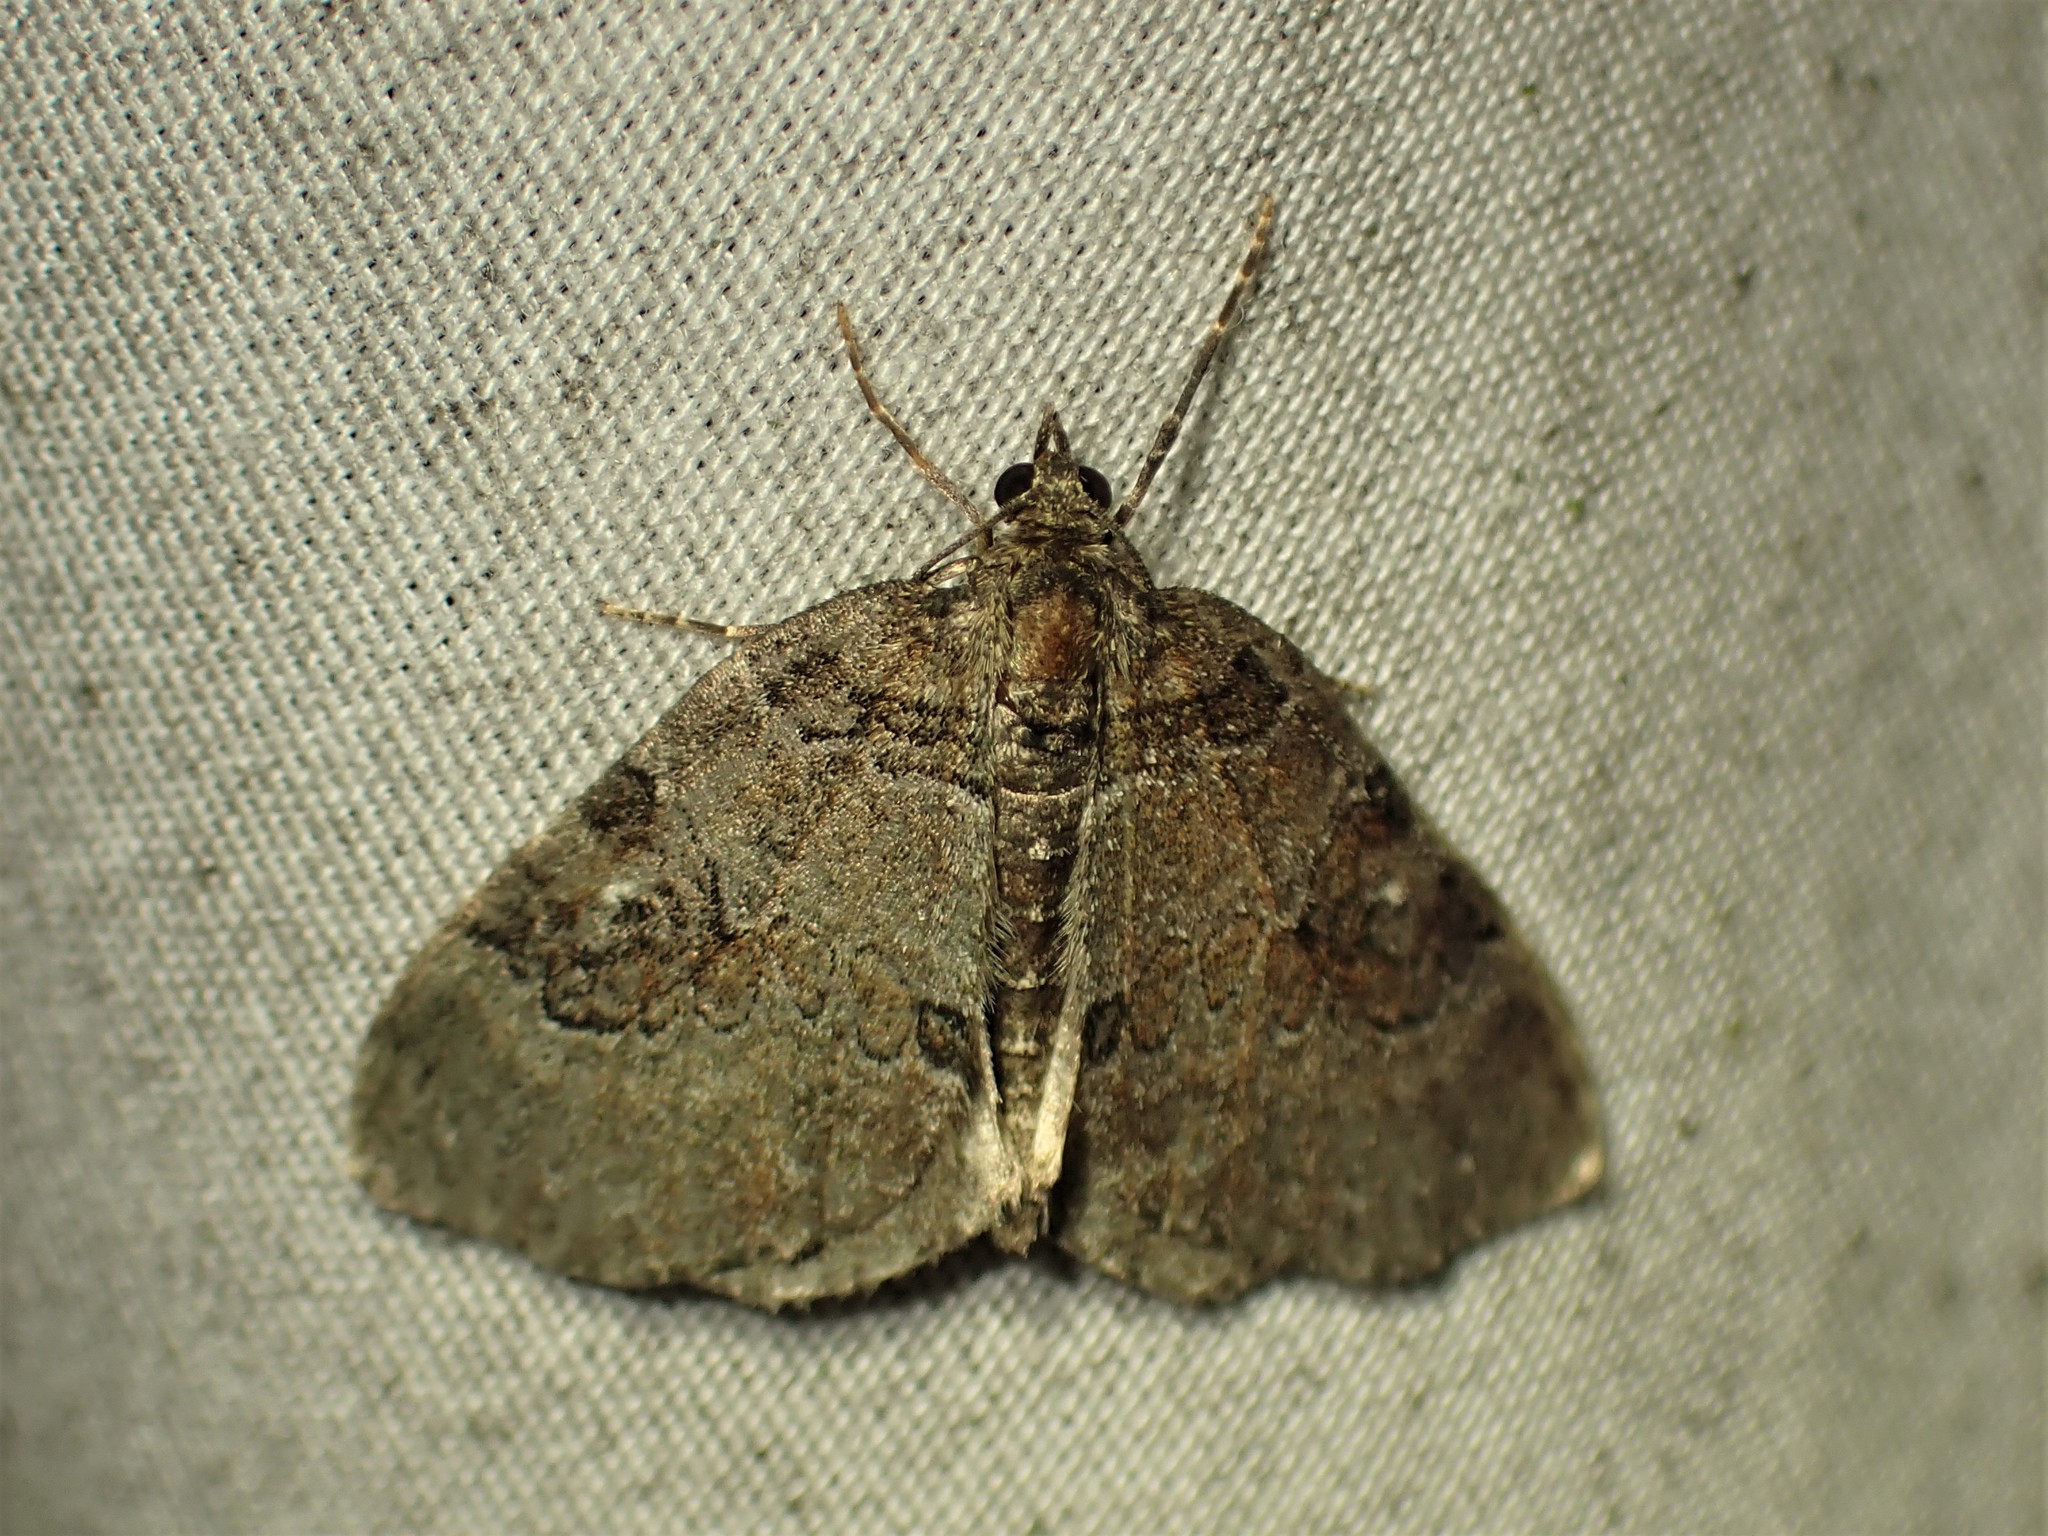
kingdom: Animalia
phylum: Arthropoda
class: Insecta
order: Lepidoptera
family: Geometridae
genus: Plemyria
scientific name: Plemyria georgii
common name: George's carpet moth
